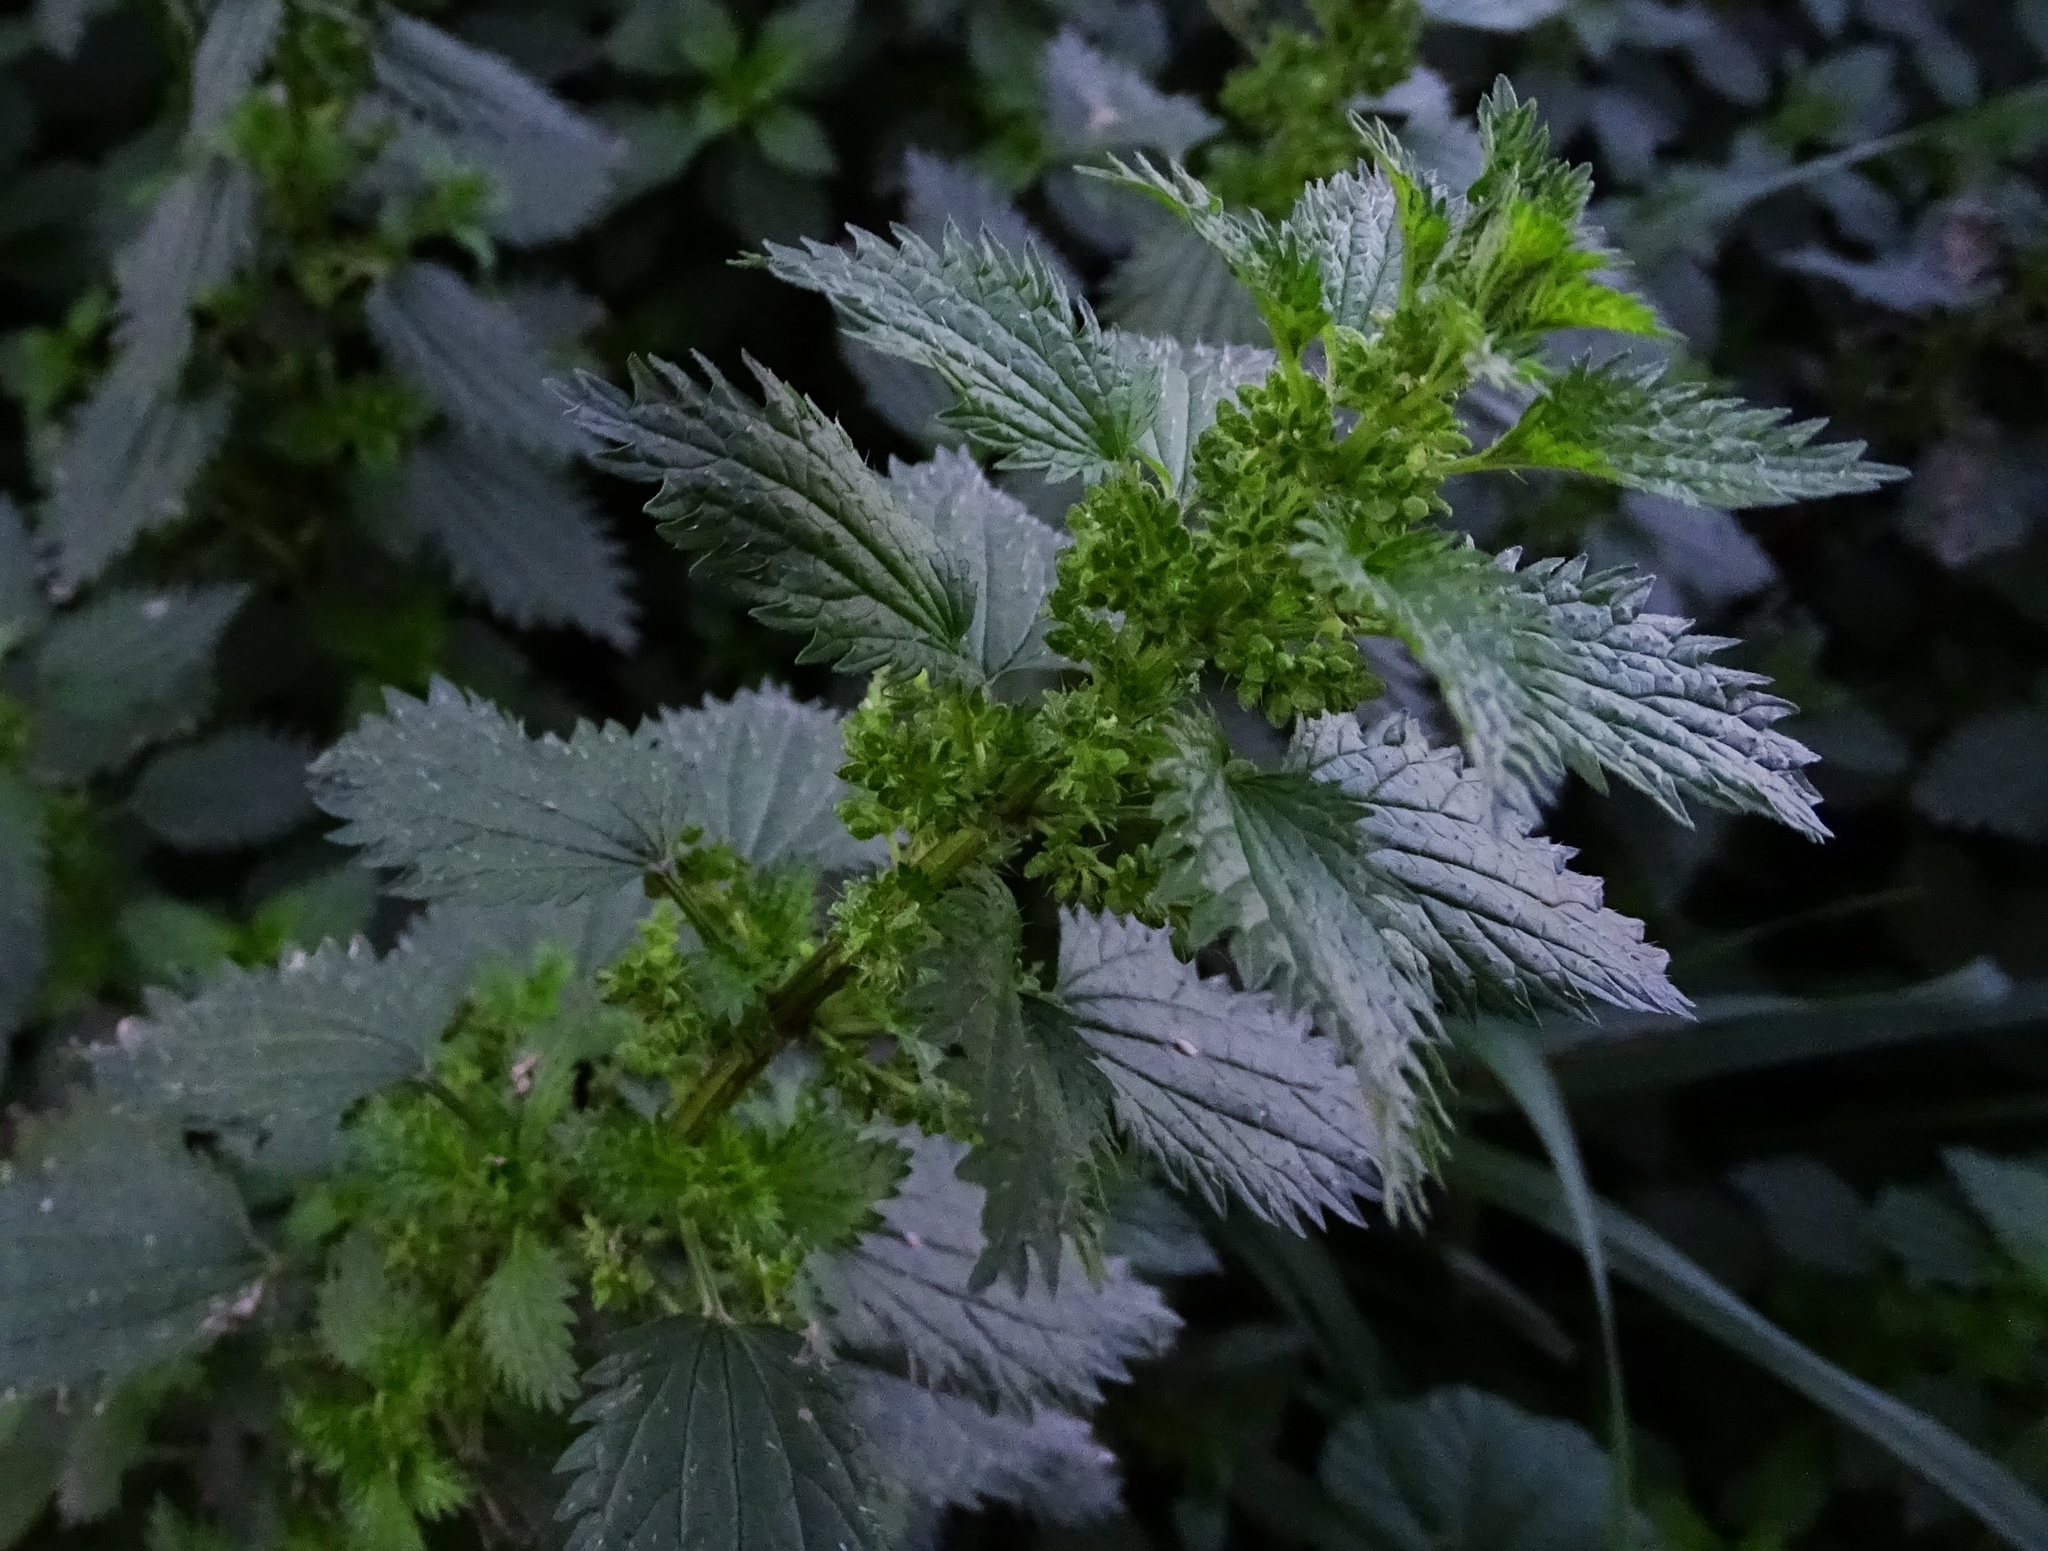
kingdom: Plantae
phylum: Tracheophyta
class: Magnoliopsida
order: Rosales
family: Urticaceae
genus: Urtica
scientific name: Urtica urens
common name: Dwarf nettle
